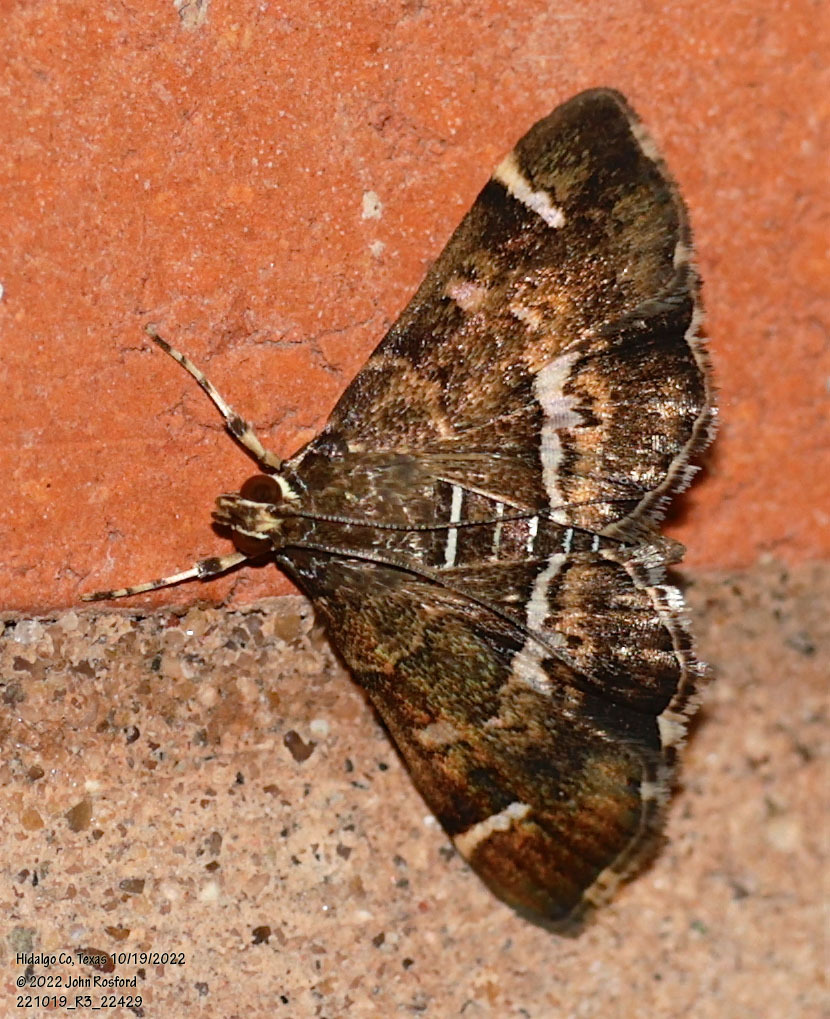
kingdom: Animalia
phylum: Arthropoda
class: Insecta
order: Lepidoptera
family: Crambidae
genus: Hymenia
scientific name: Hymenia perspectalis
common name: Spotted beet webworm
